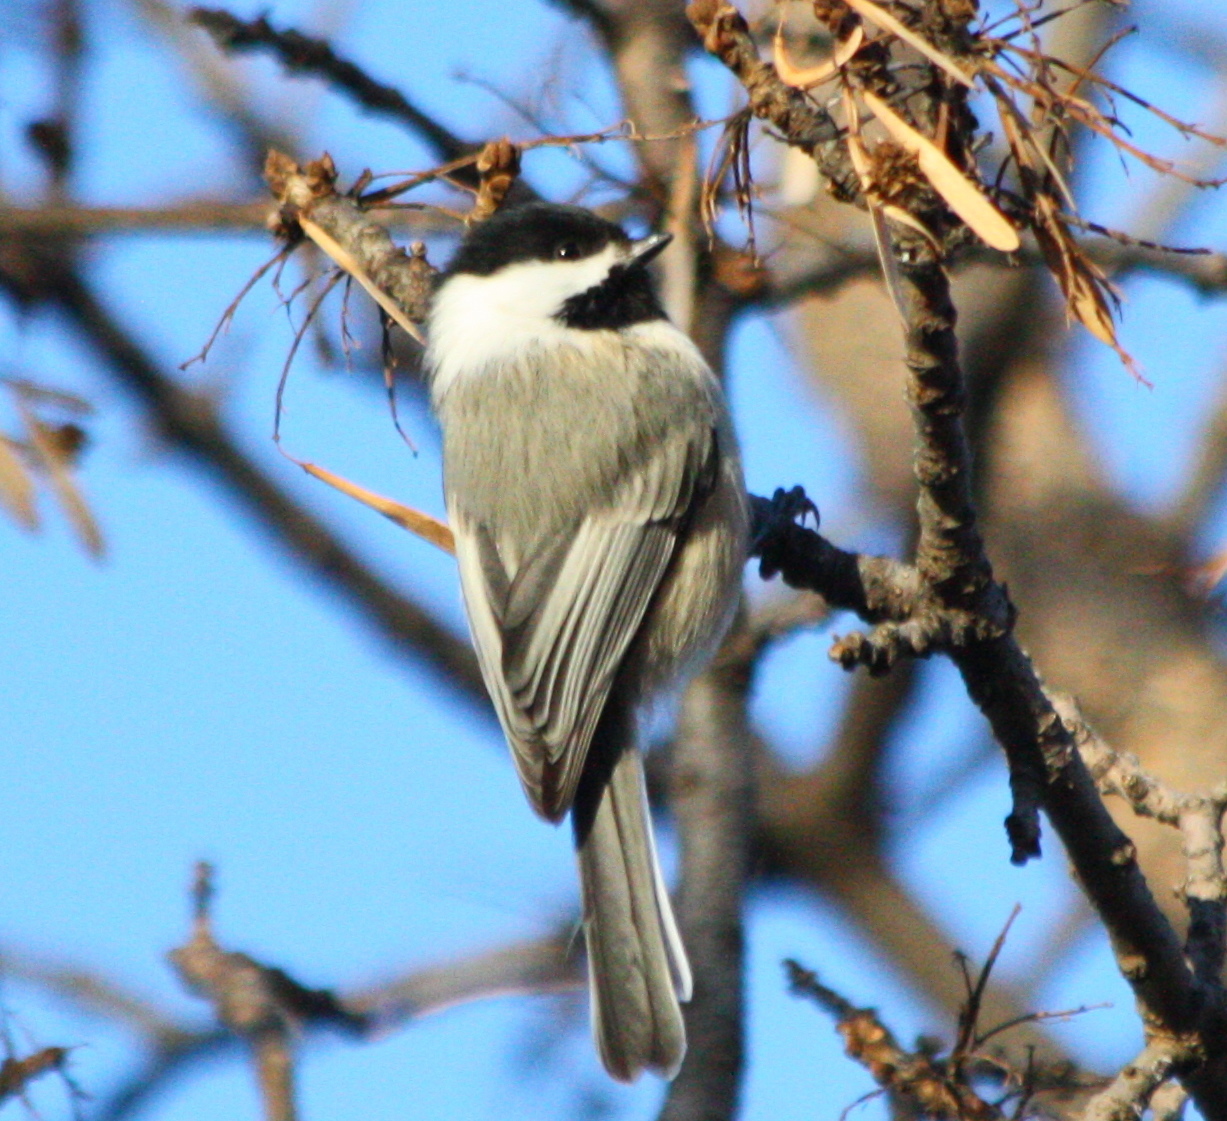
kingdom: Animalia
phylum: Chordata
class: Aves
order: Passeriformes
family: Paridae
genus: Poecile
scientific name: Poecile atricapillus
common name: Black-capped chickadee
